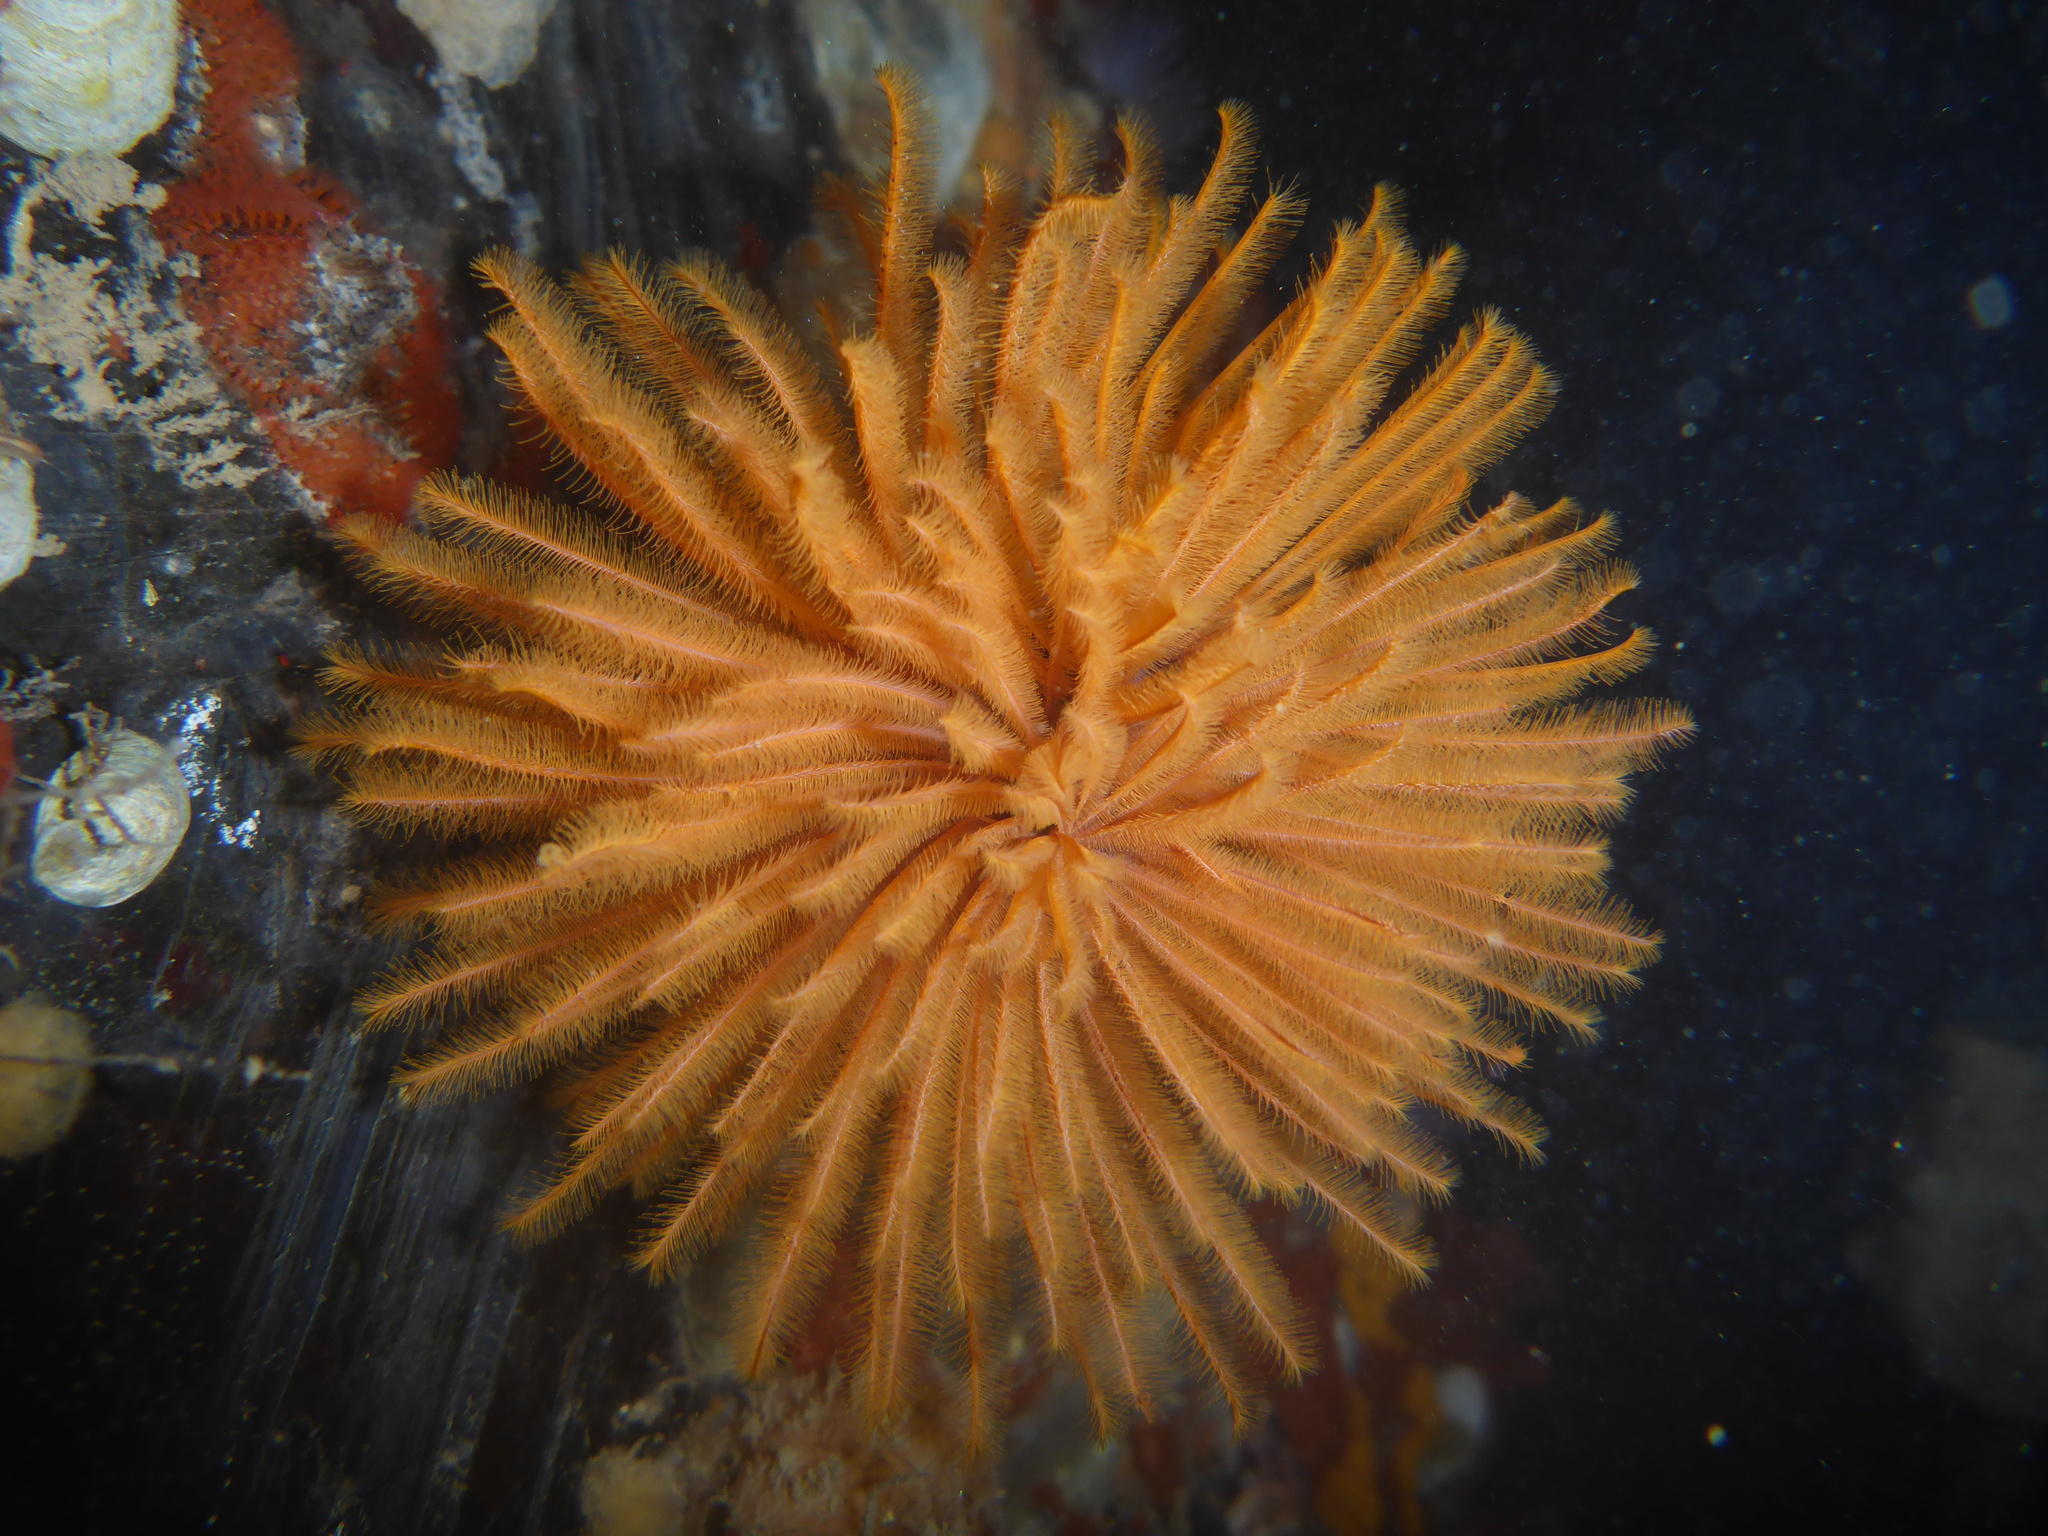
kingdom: Animalia
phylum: Annelida
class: Polychaeta
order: Sabellida
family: Sabellidae
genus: Eudistylia
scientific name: Eudistylia polymorpha
